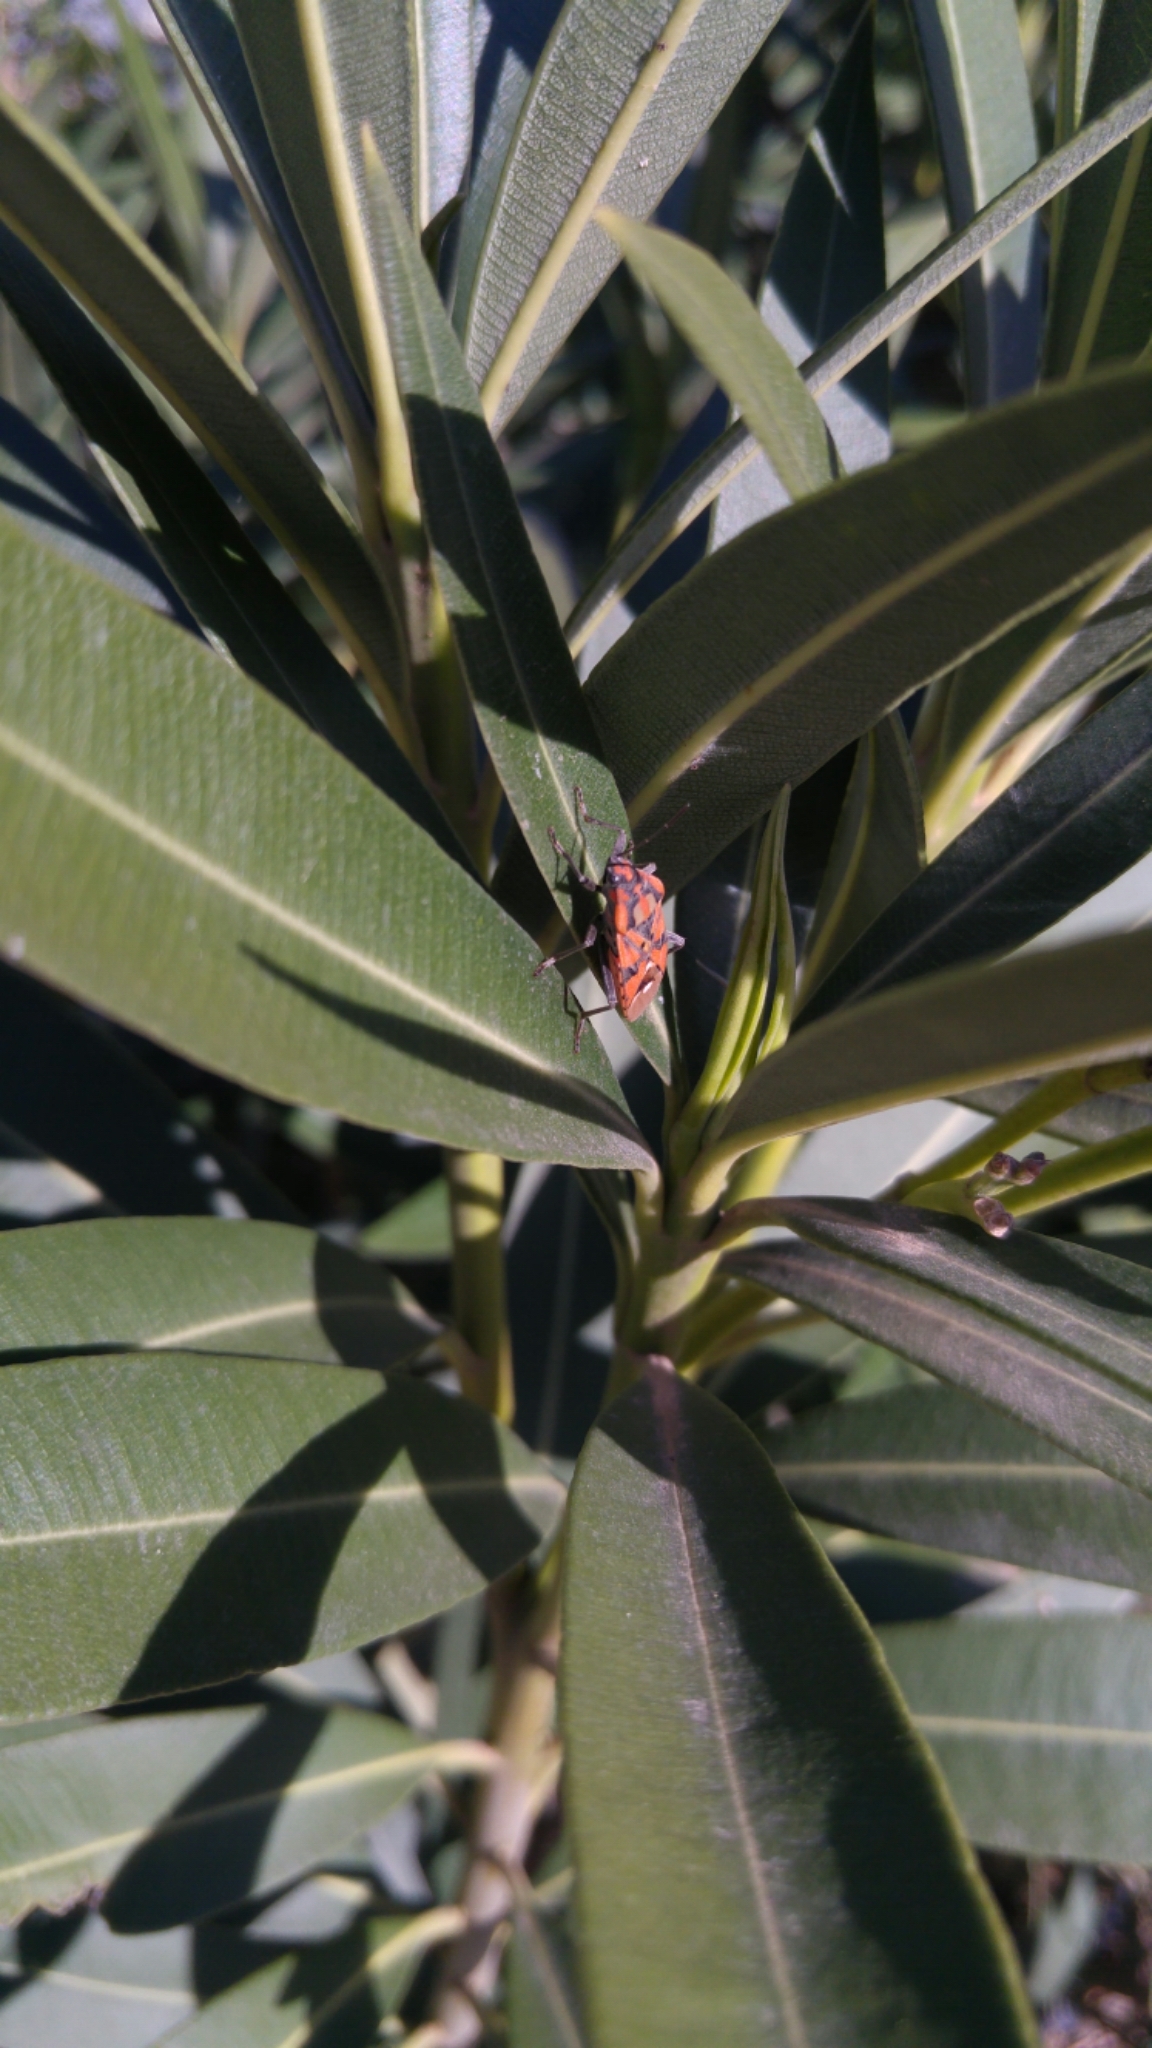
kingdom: Animalia
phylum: Arthropoda
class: Insecta
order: Hemiptera
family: Lygaeidae
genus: Spilostethus
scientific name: Spilostethus pandurus
